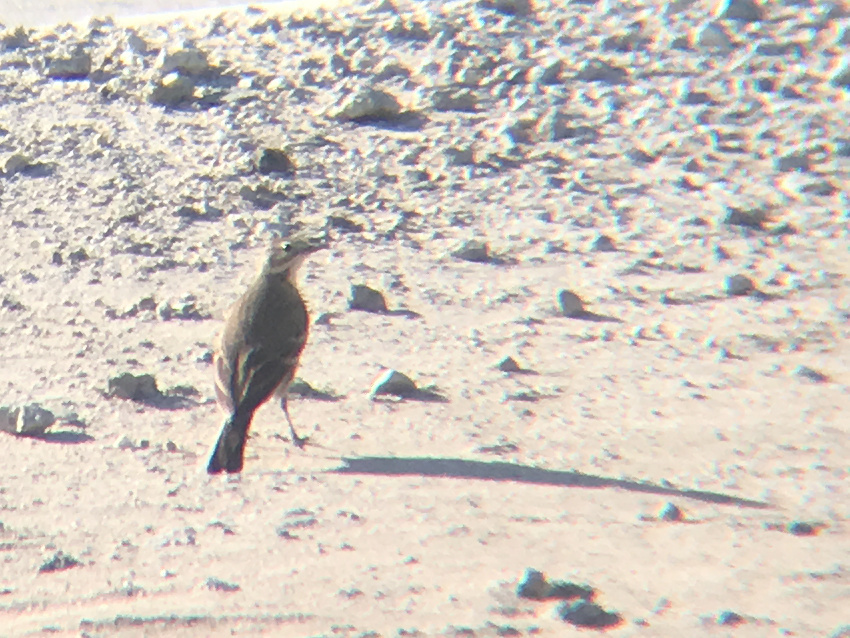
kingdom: Animalia
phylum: Chordata
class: Aves
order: Passeriformes
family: Motacillidae
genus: Anthus
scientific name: Anthus rubescens
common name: Buff-bellied pipit
